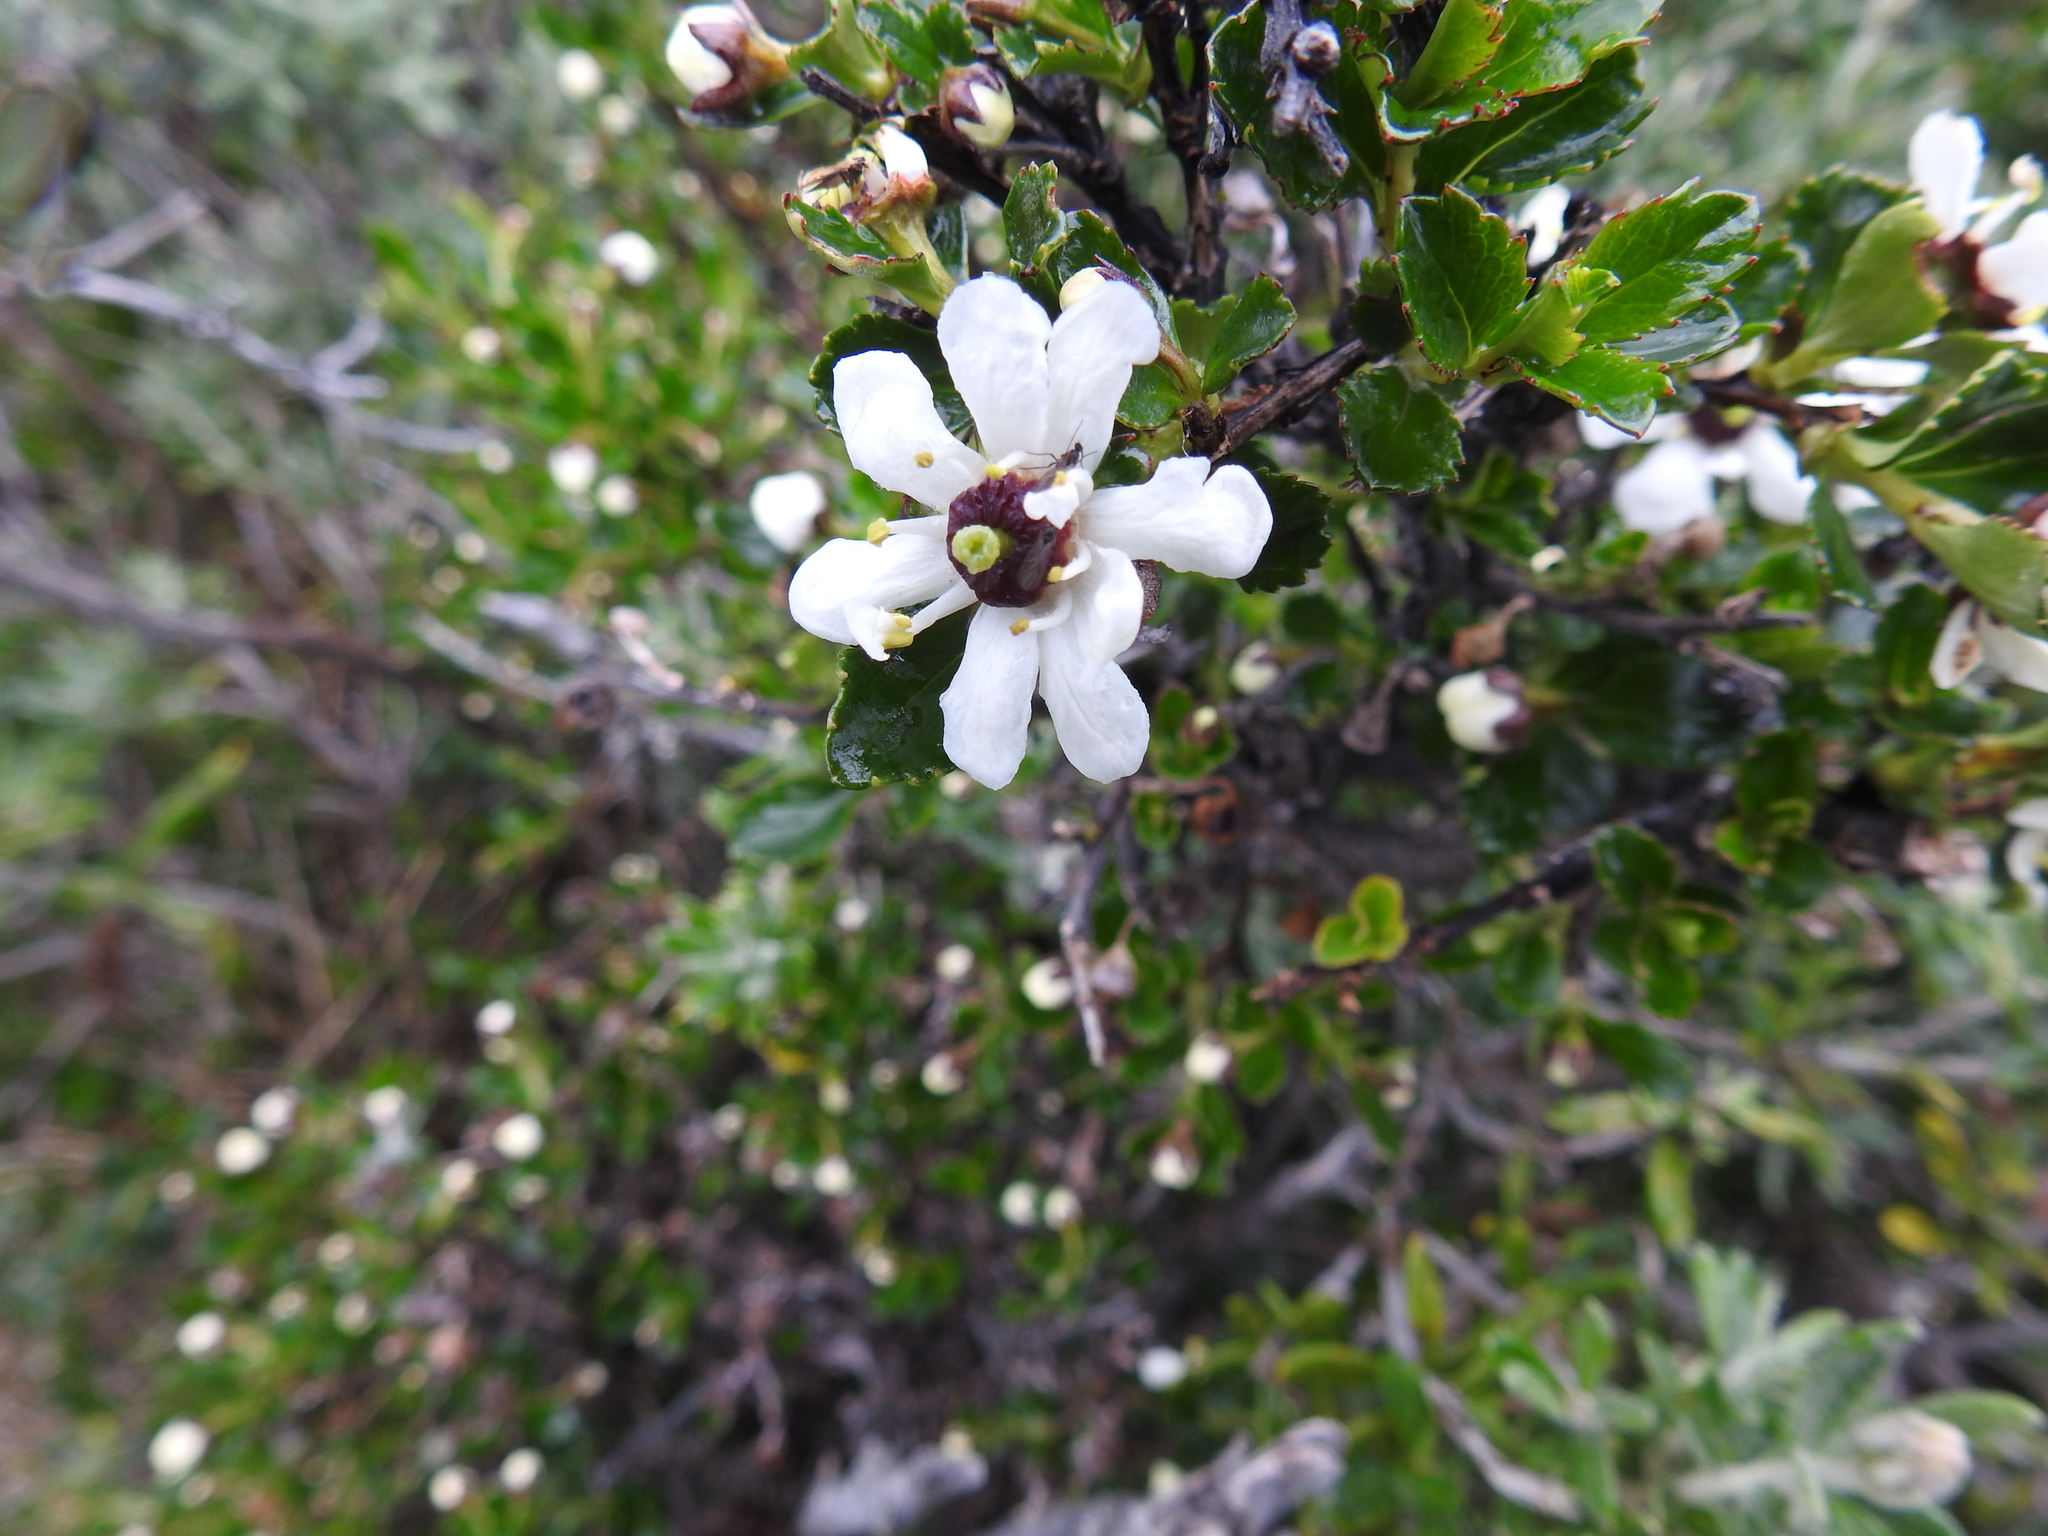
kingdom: Plantae
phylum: Tracheophyta
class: Magnoliopsida
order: Escalloniales
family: Escalloniaceae
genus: Escallonia
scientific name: Escallonia serrata
